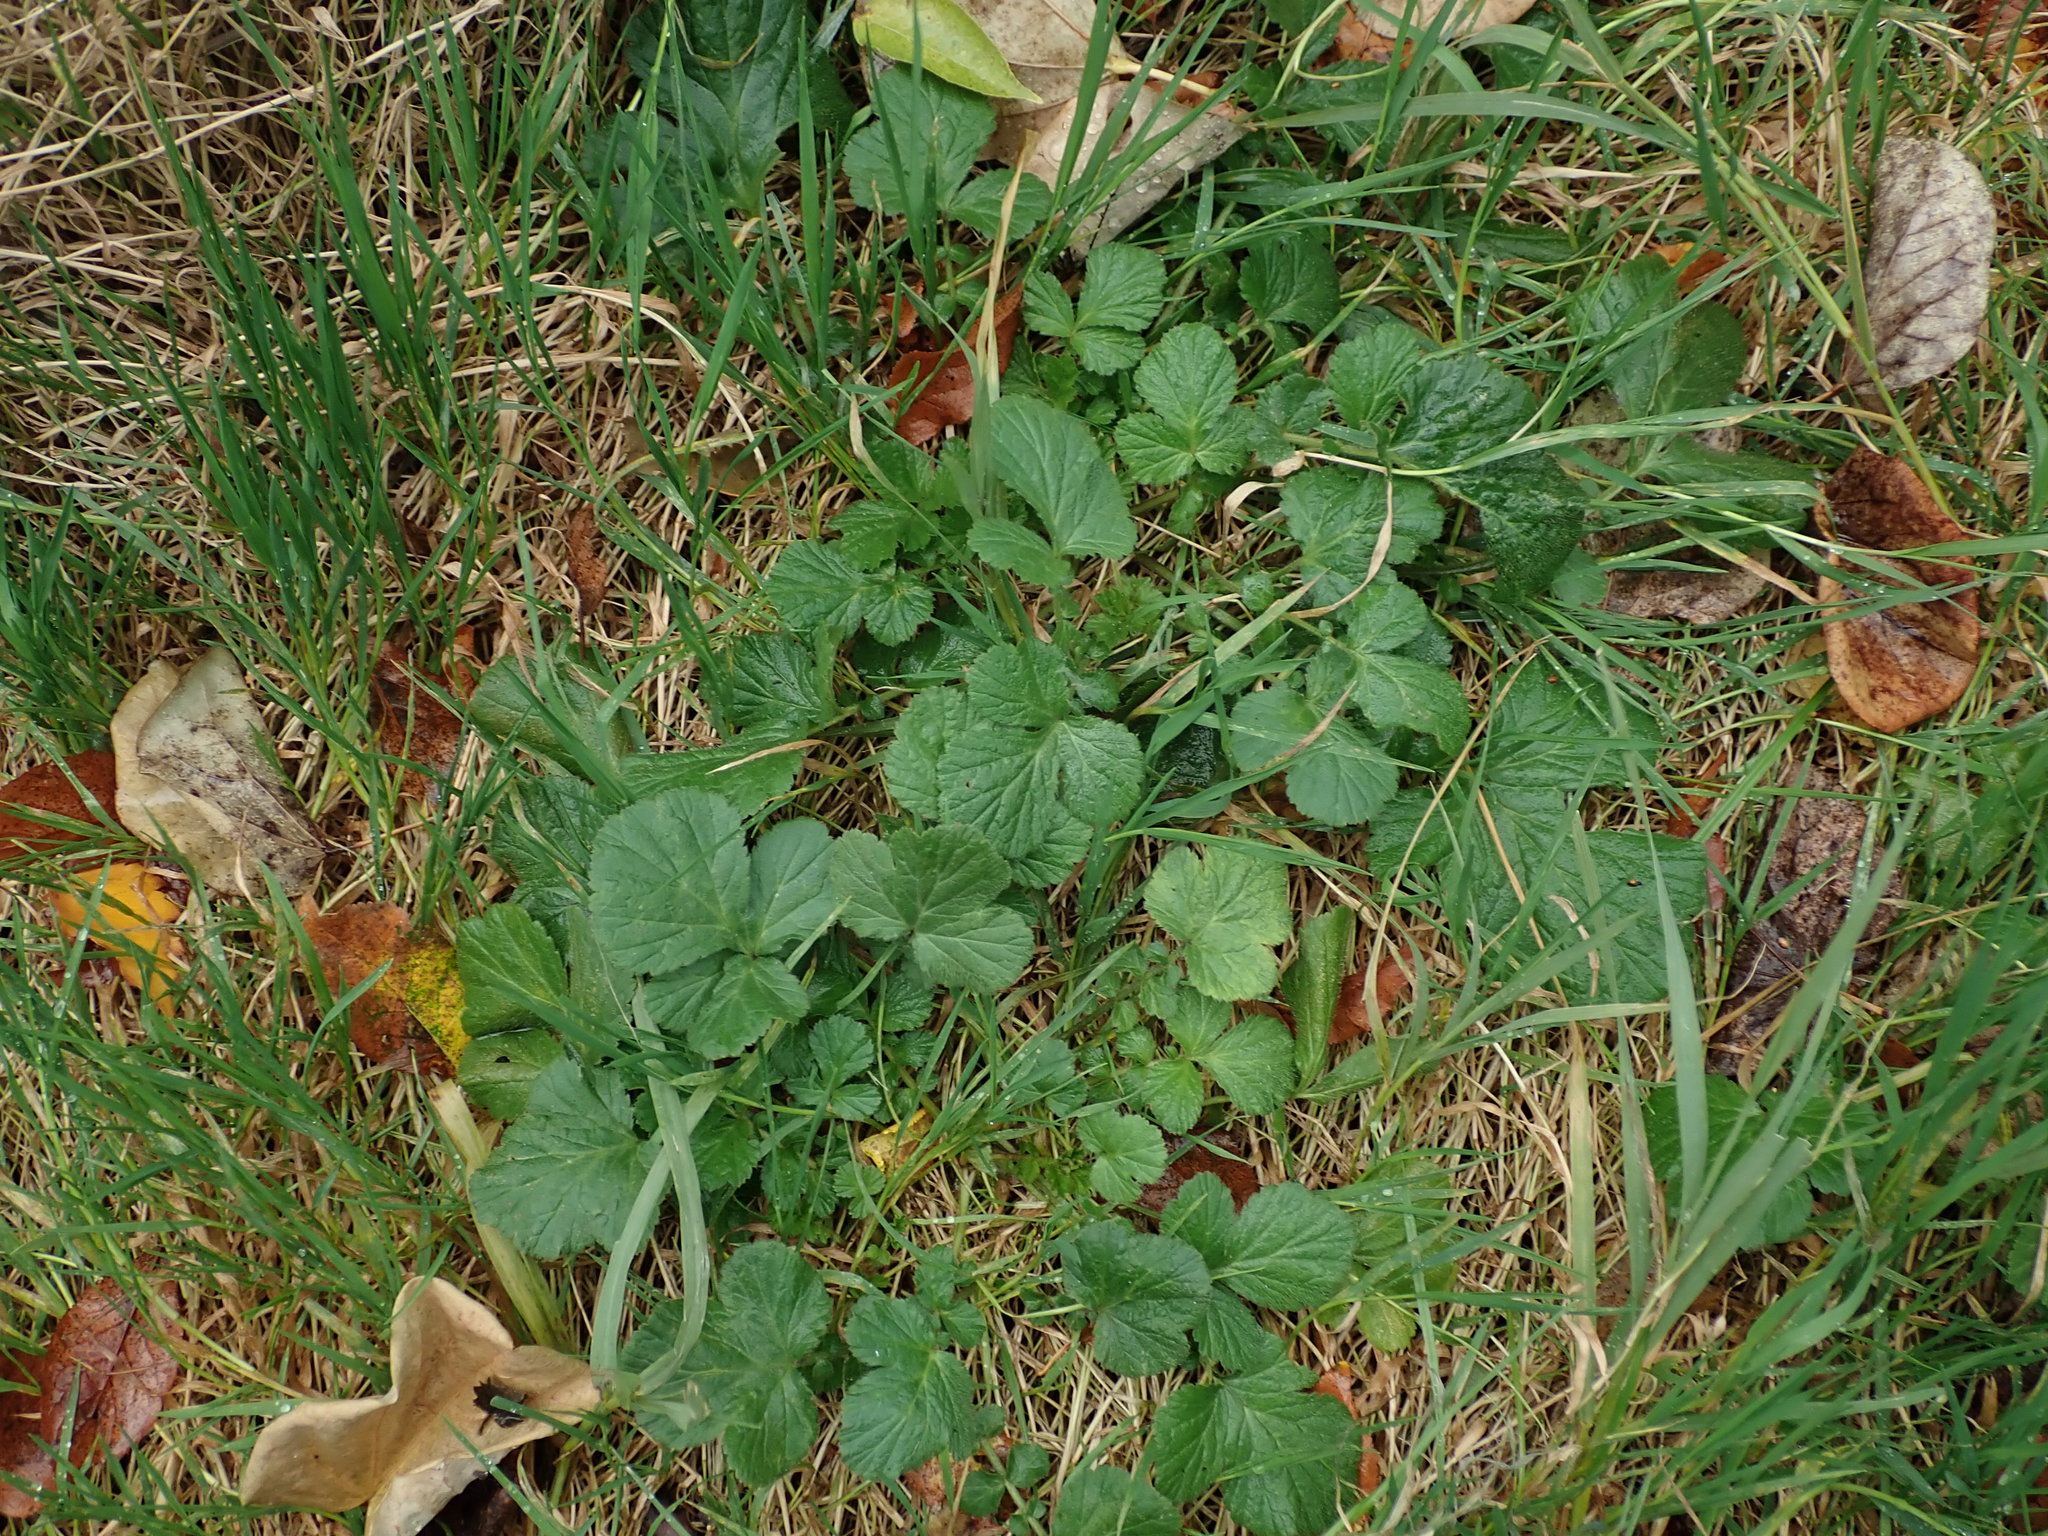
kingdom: Plantae
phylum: Tracheophyta
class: Magnoliopsida
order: Rosales
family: Rosaceae
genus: Geum
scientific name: Geum urbanum
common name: Wood avens
